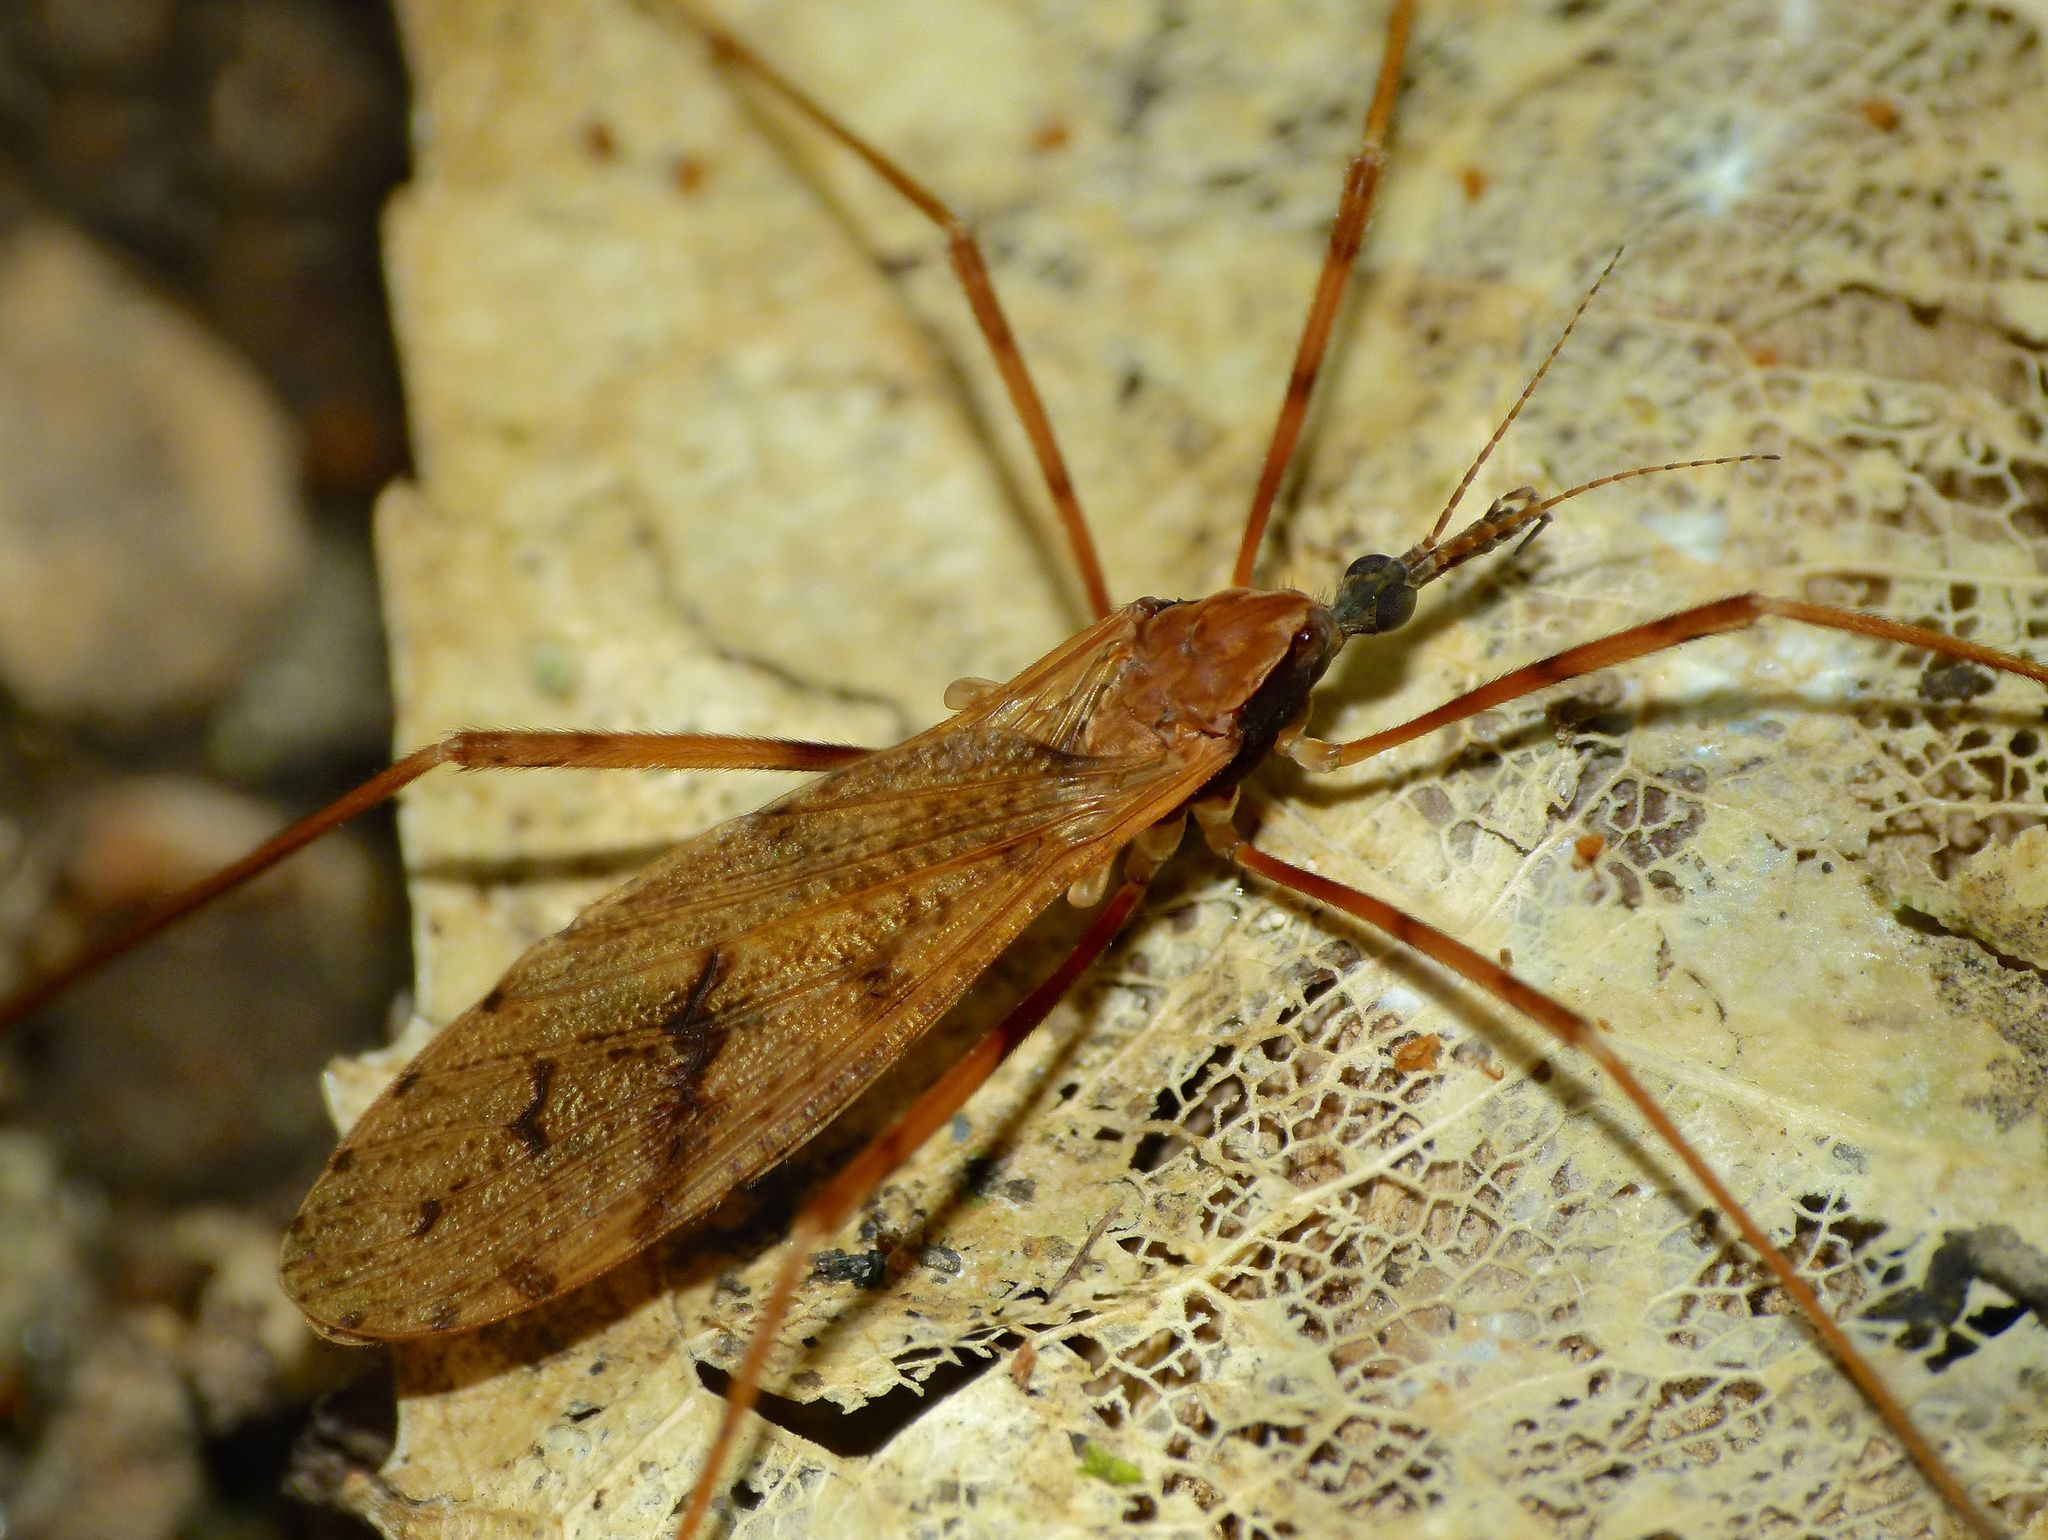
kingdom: Animalia
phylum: Arthropoda
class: Insecta
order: Diptera
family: Limoniidae
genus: Rhamphophila
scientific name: Rhamphophila sinistra
